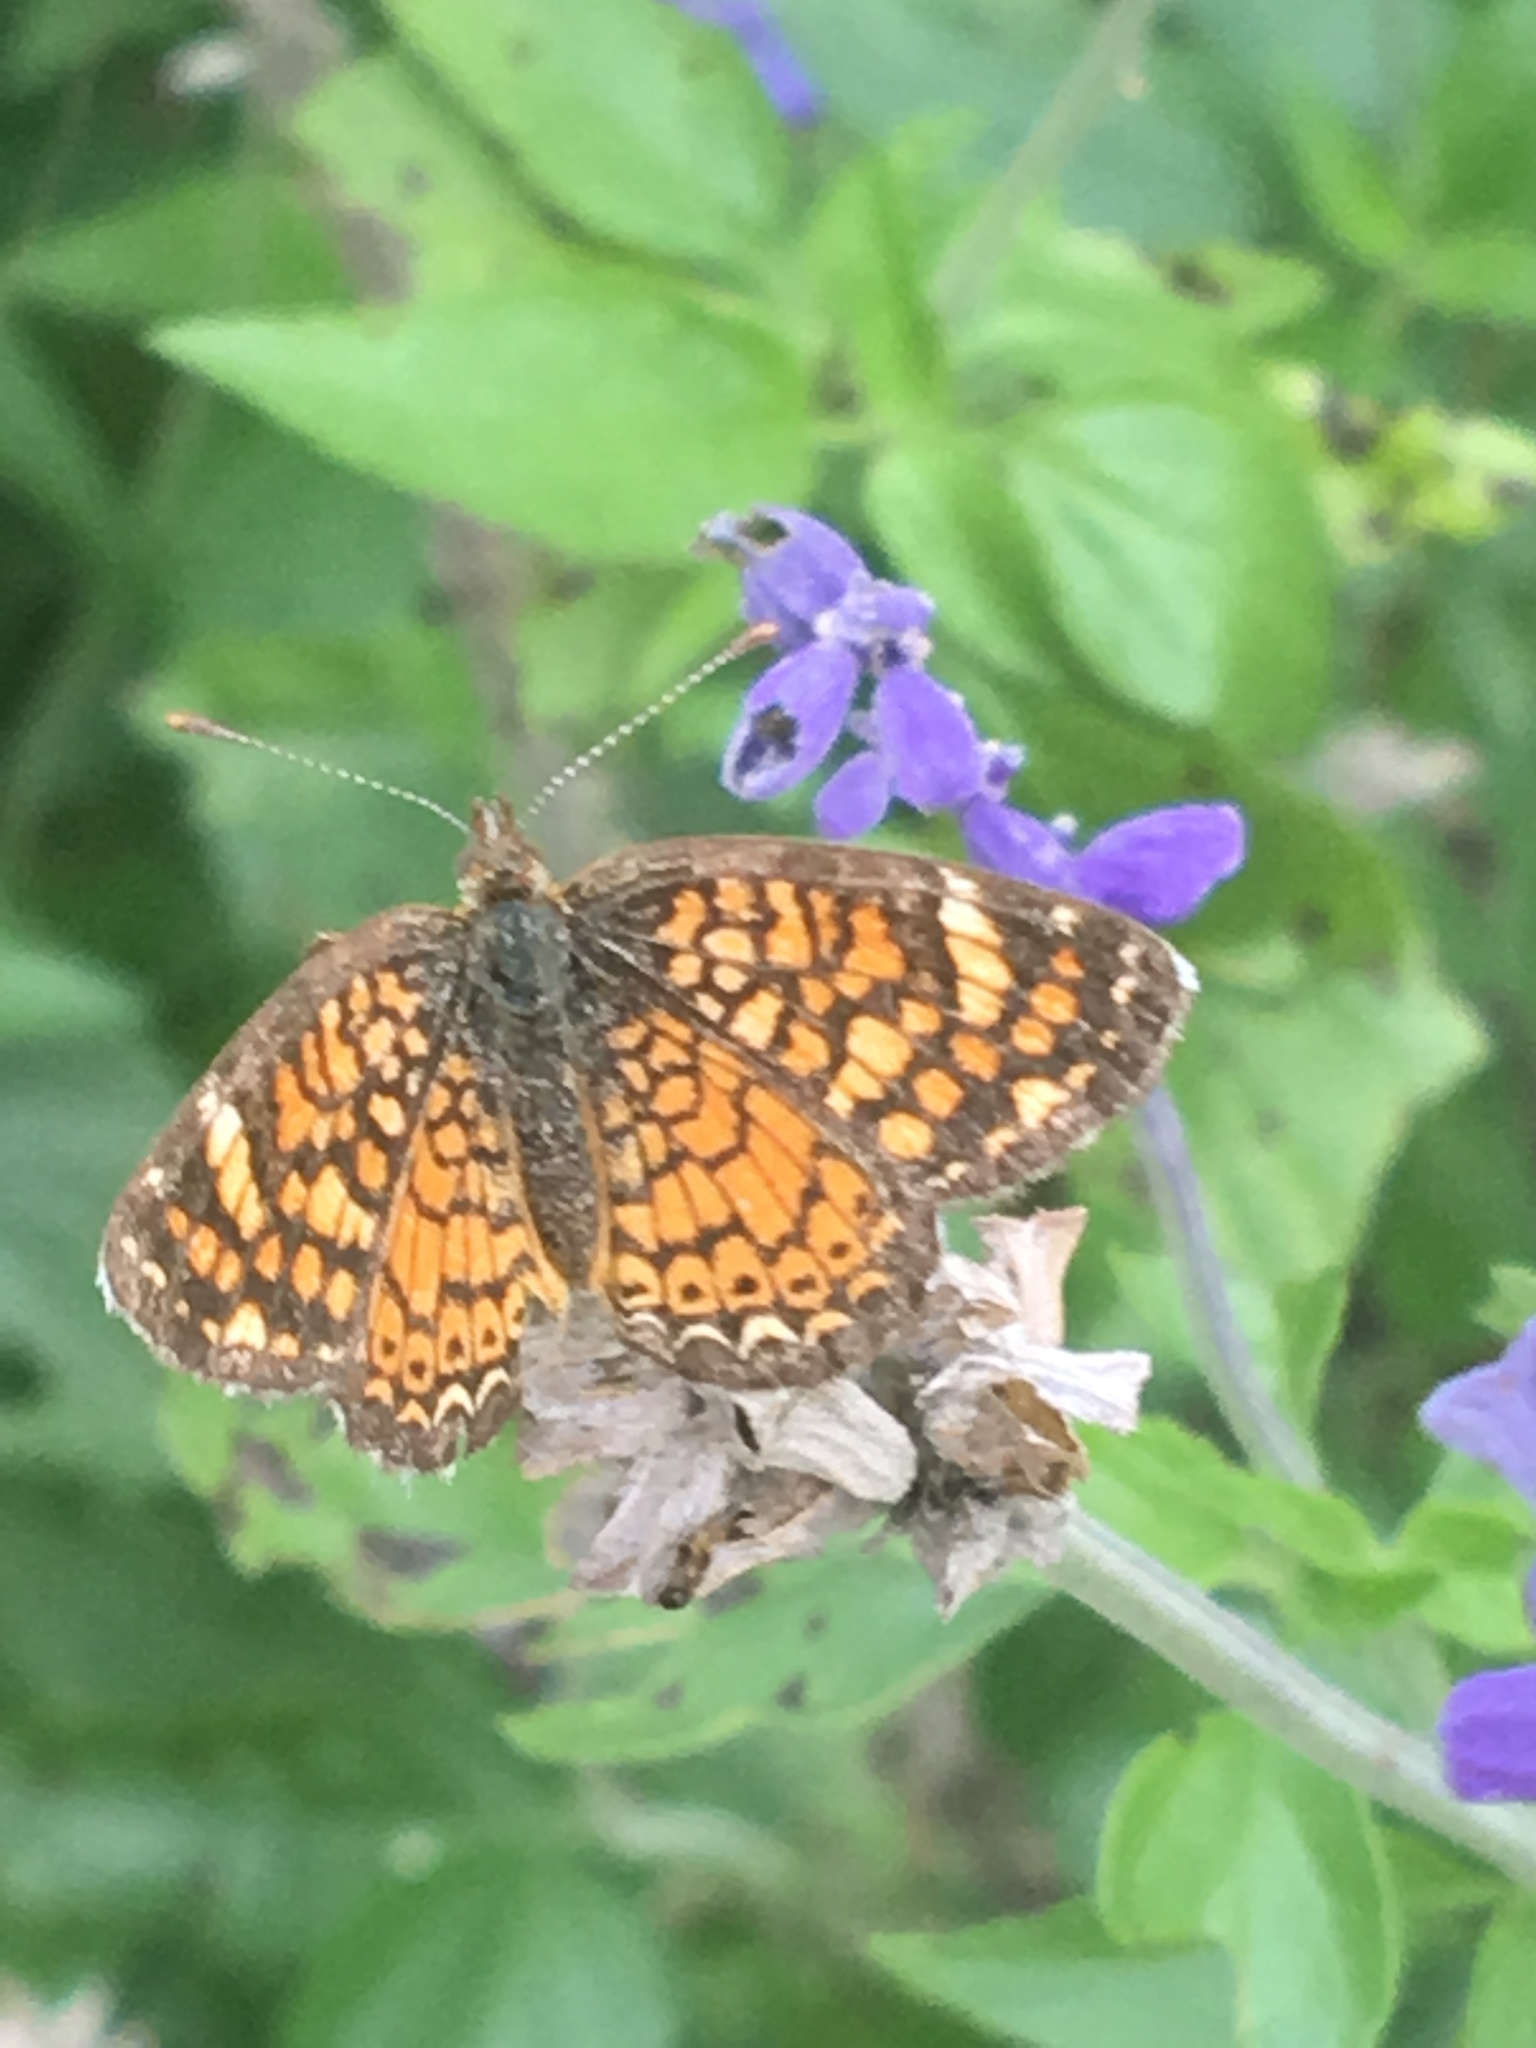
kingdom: Animalia
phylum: Arthropoda
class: Insecta
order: Lepidoptera
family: Nymphalidae
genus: Phyciodes
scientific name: Phyciodes vesta
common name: Vesta crescent
